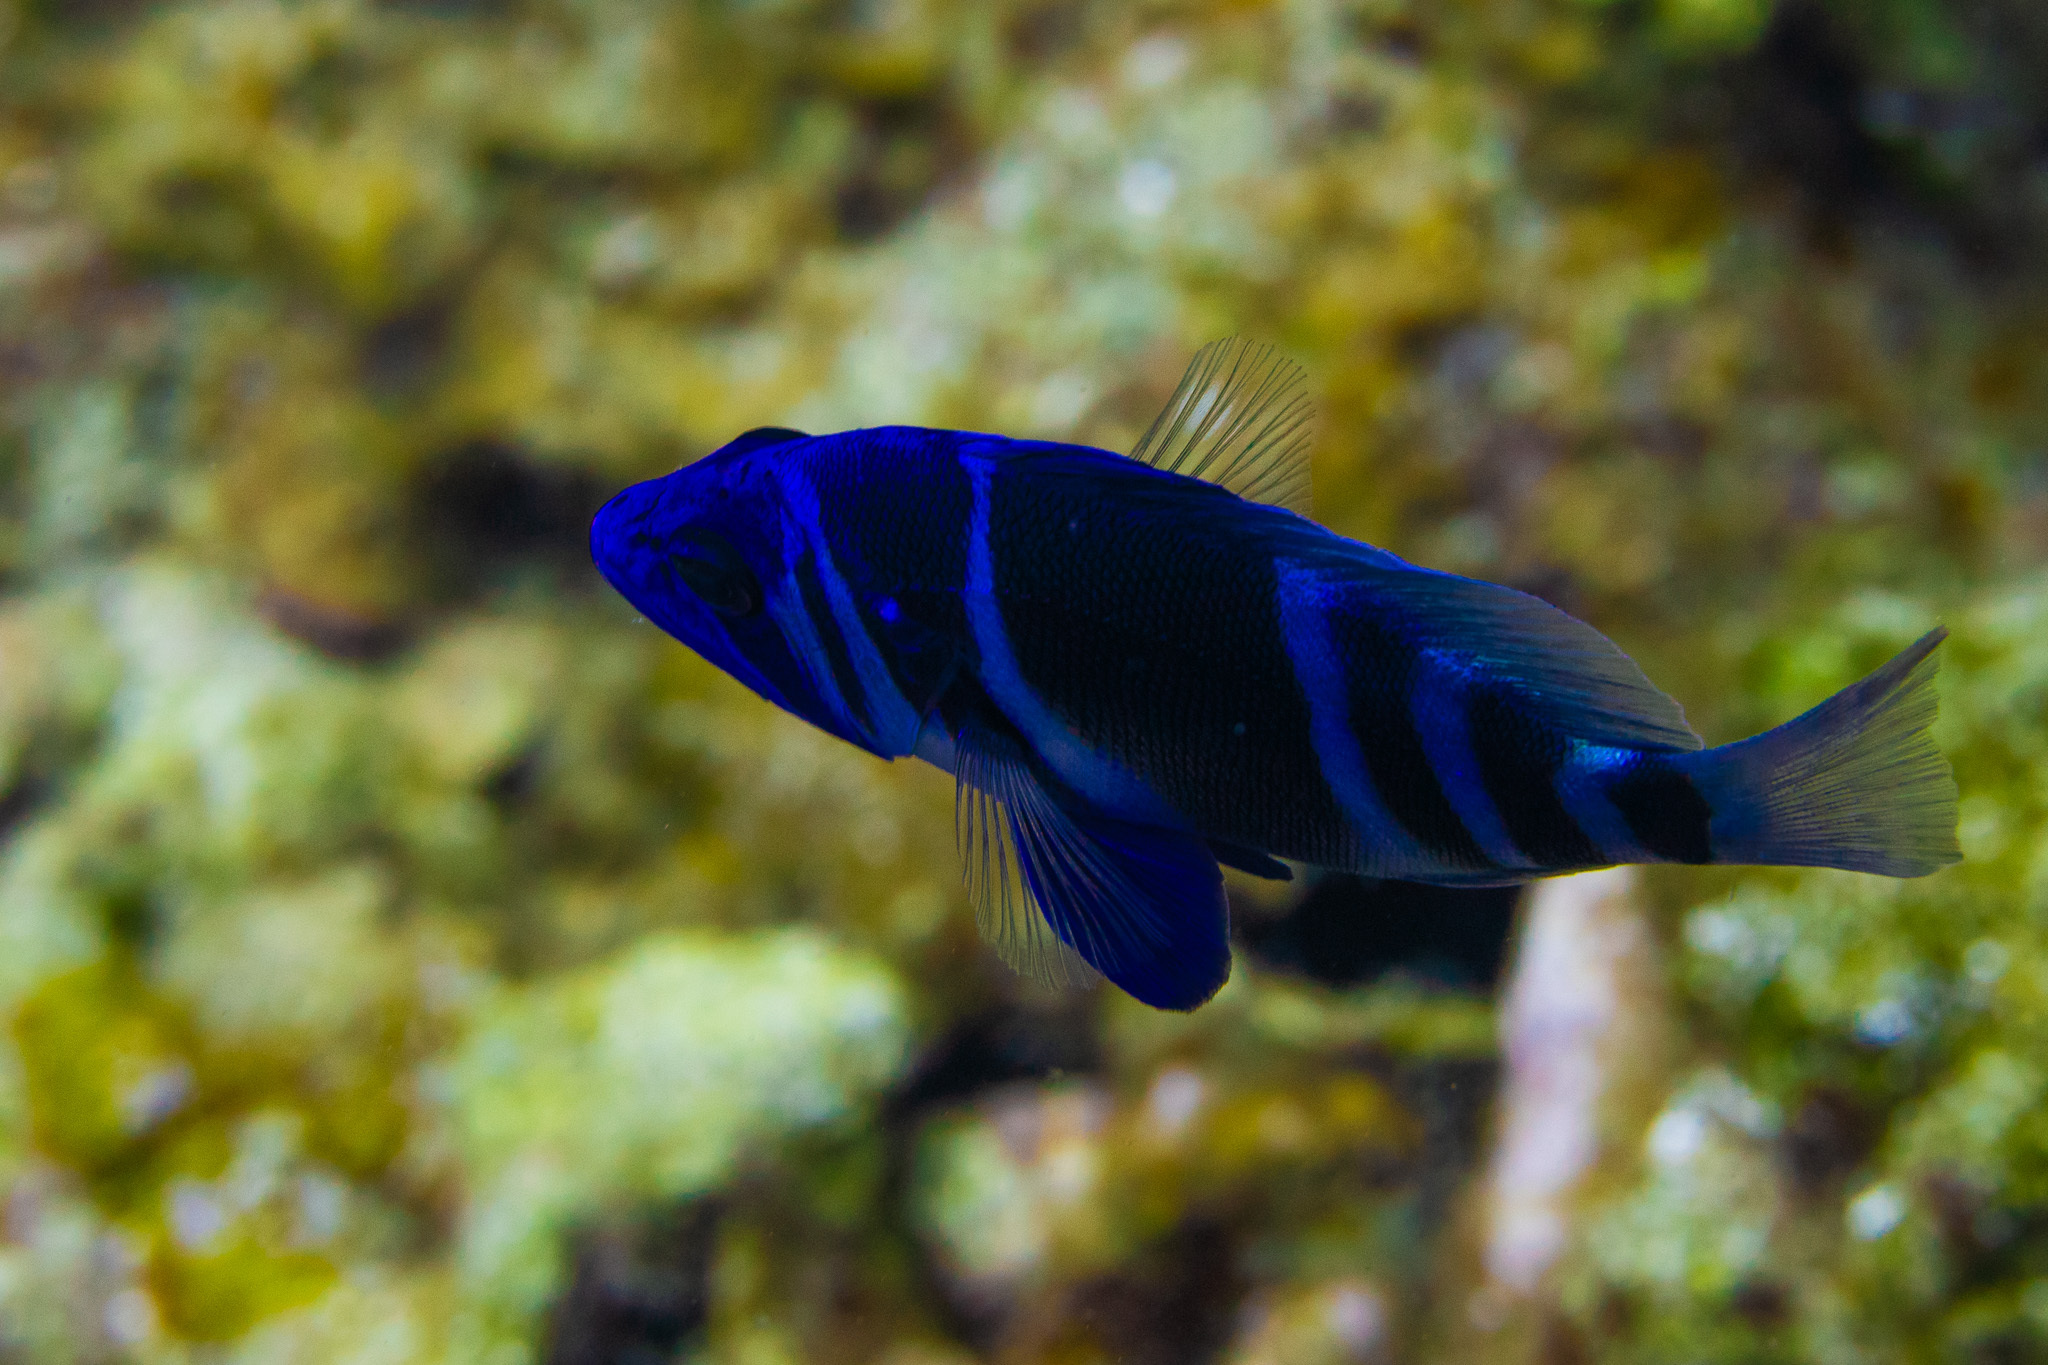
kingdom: Animalia
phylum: Chordata
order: Perciformes
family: Serranidae
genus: Hypoplectrus
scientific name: Hypoplectrus indigo
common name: Indigo hamlet
